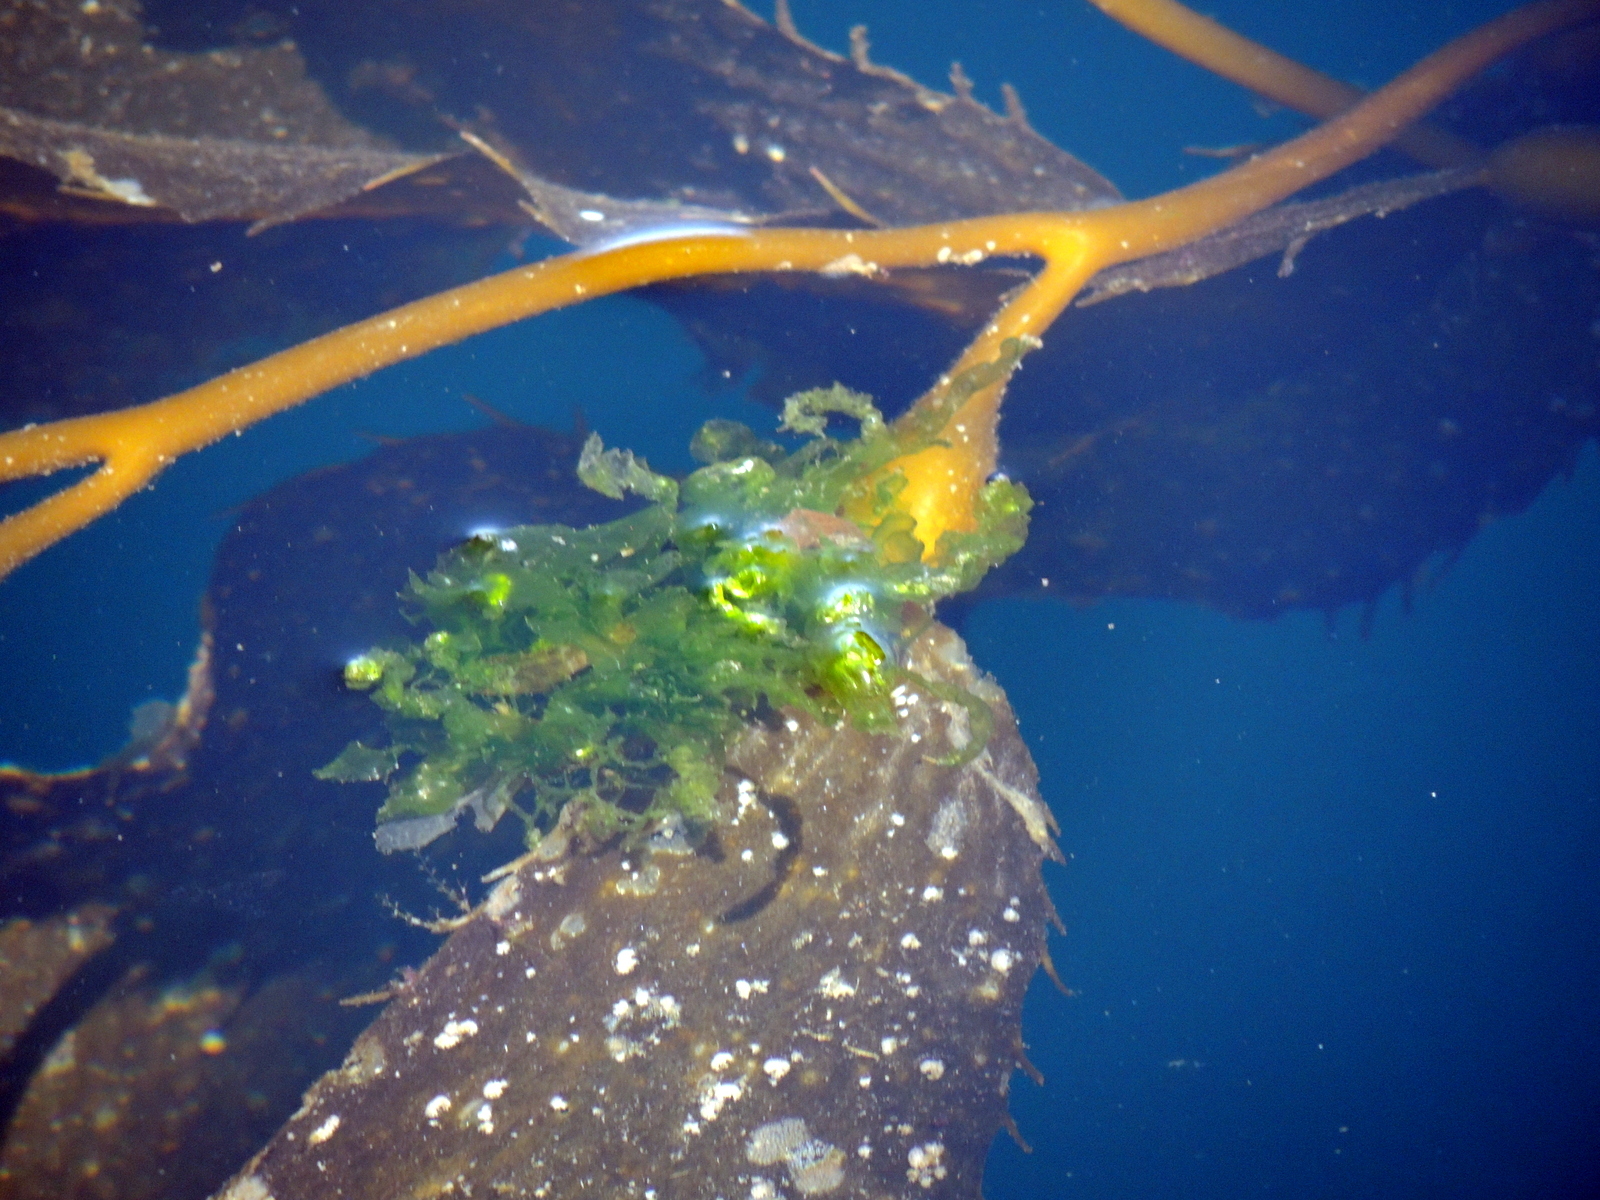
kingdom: Plantae
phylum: Chlorophyta
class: Ulvophyceae
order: Ulvales
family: Ulvaceae
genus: Ulva
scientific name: Ulva lactuca
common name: Sea lettuce
